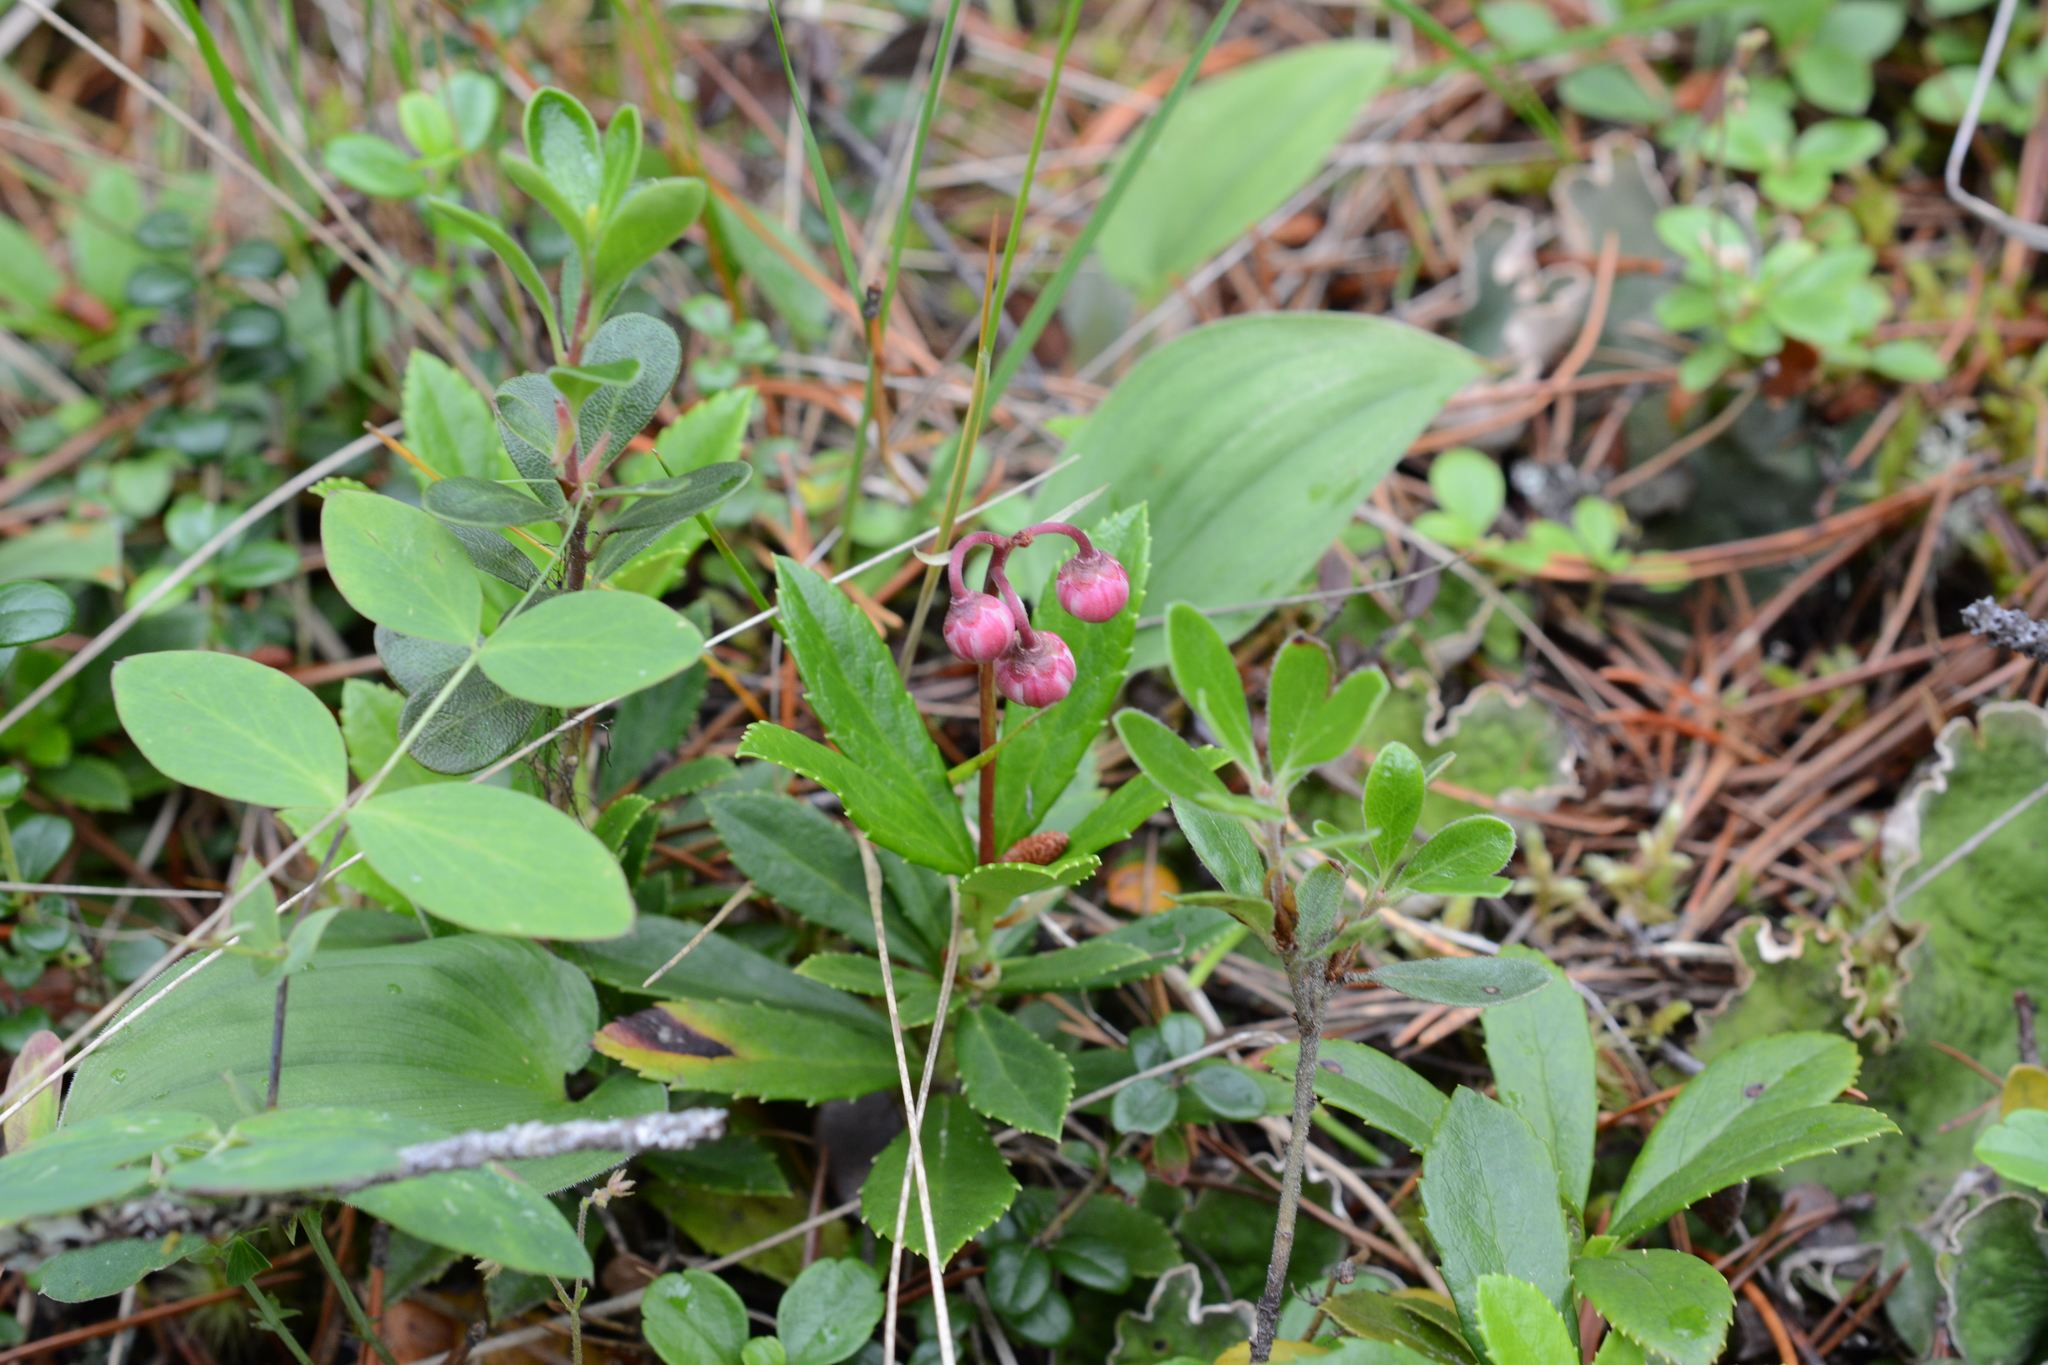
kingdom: Plantae
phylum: Tracheophyta
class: Magnoliopsida
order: Ericales
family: Ericaceae
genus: Chimaphila
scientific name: Chimaphila umbellata
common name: Pipsissewa
